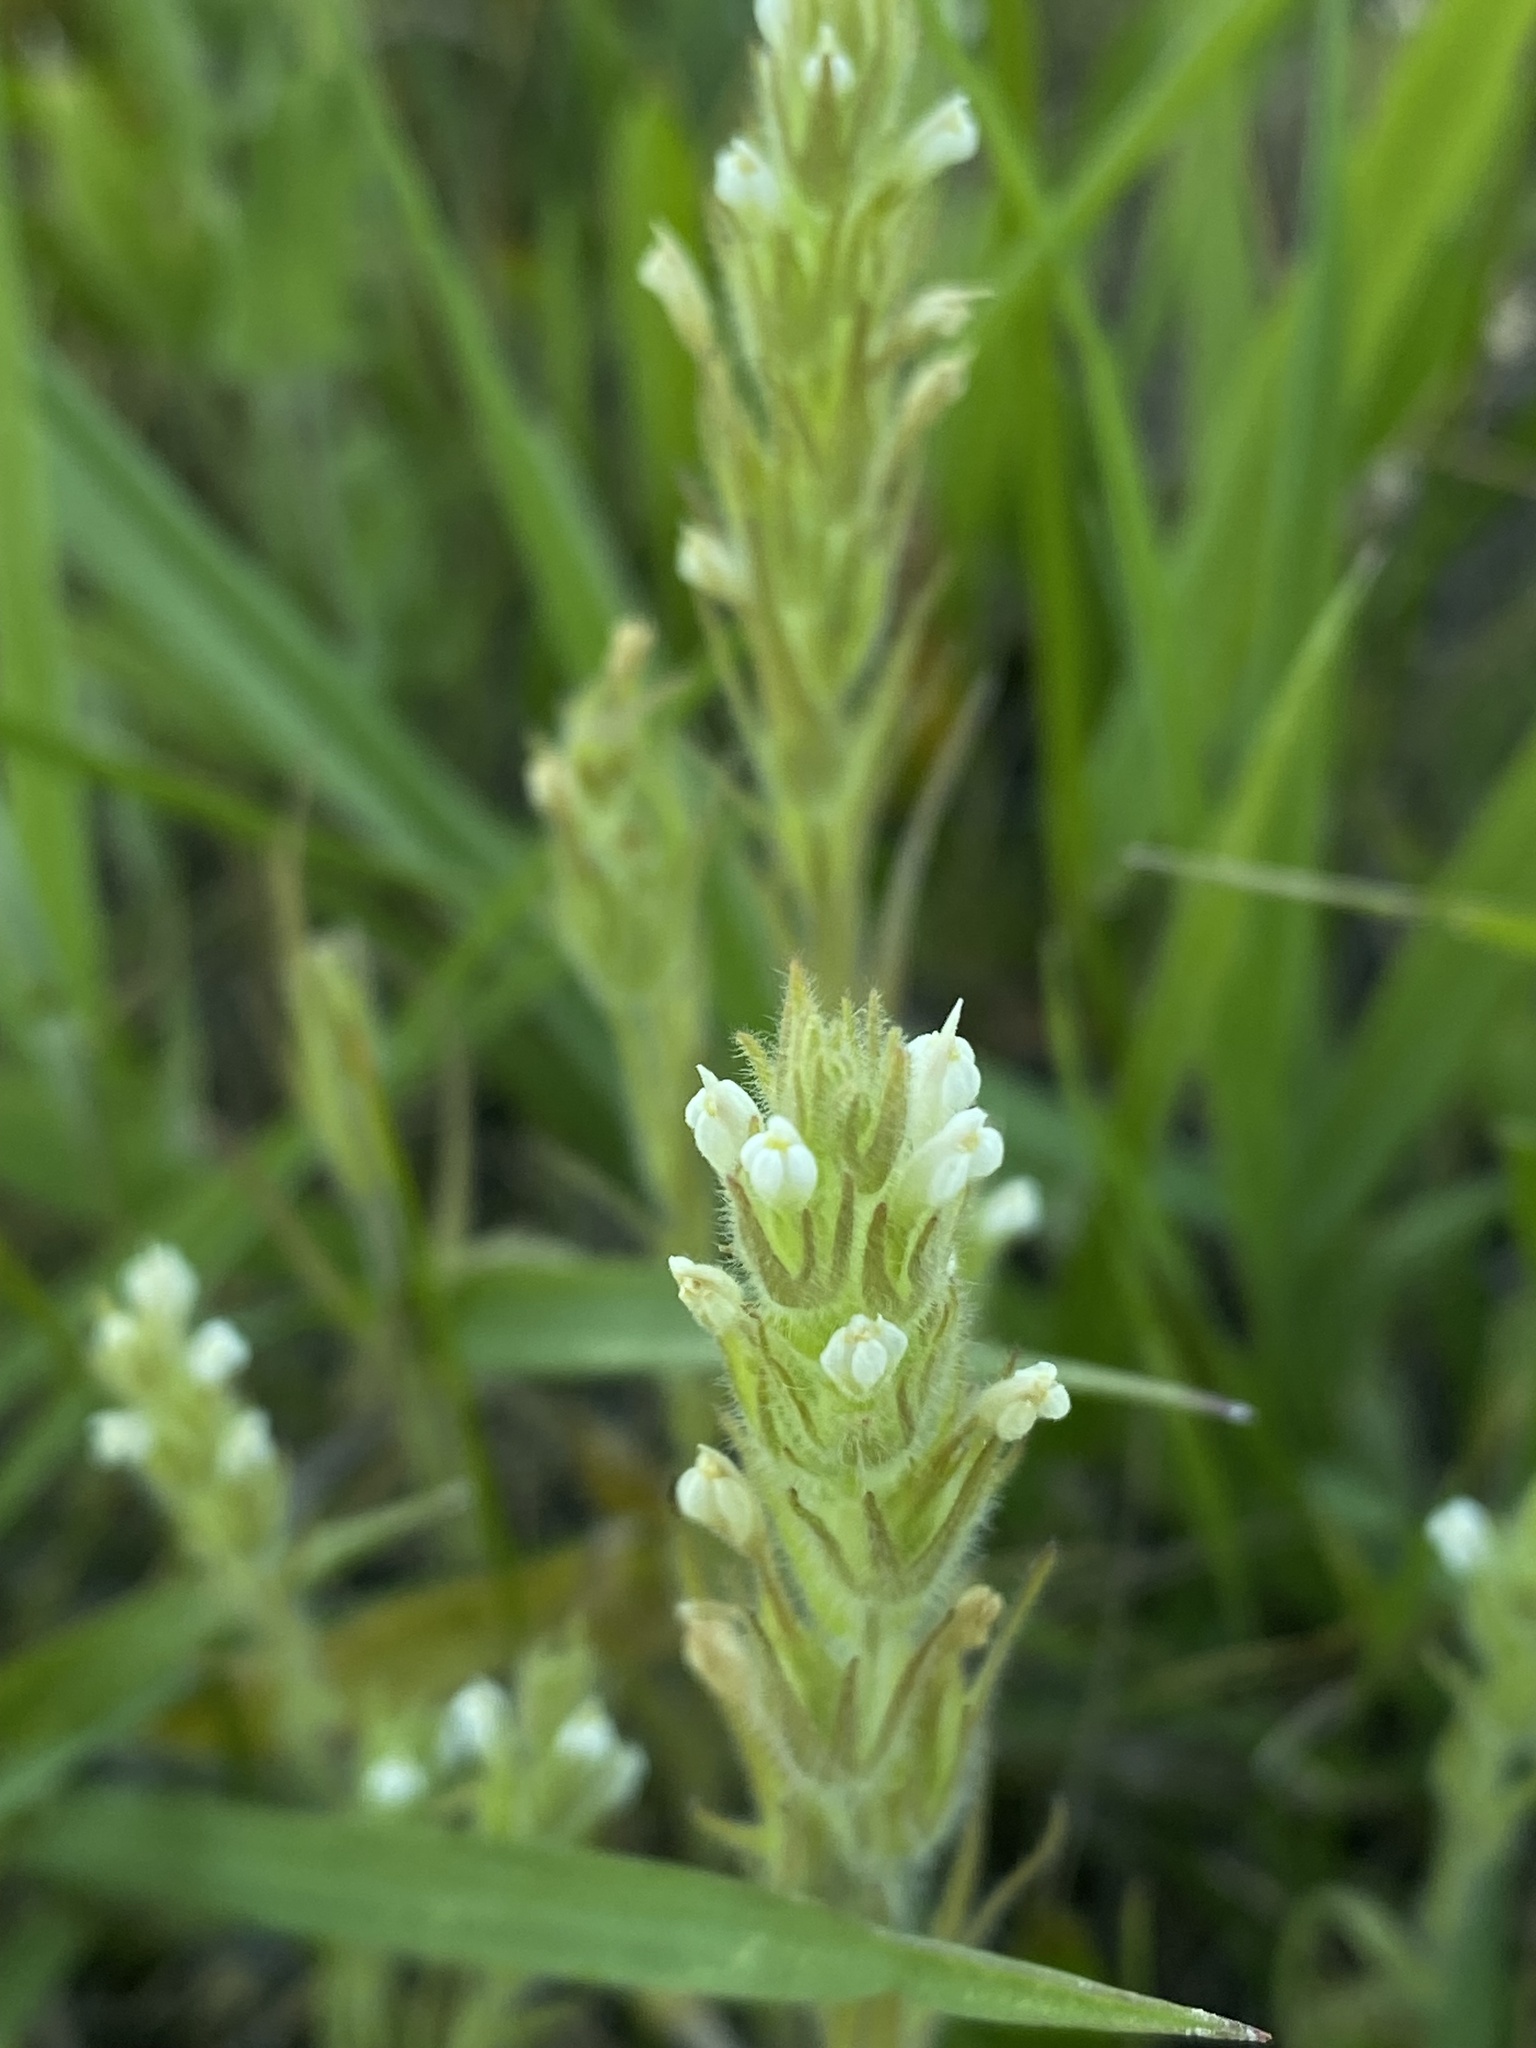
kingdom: Plantae
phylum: Tracheophyta
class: Magnoliopsida
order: Lamiales
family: Orobanchaceae
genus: Castilleja
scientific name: Castilleja tenuis
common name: Hairy indian paintbrush
